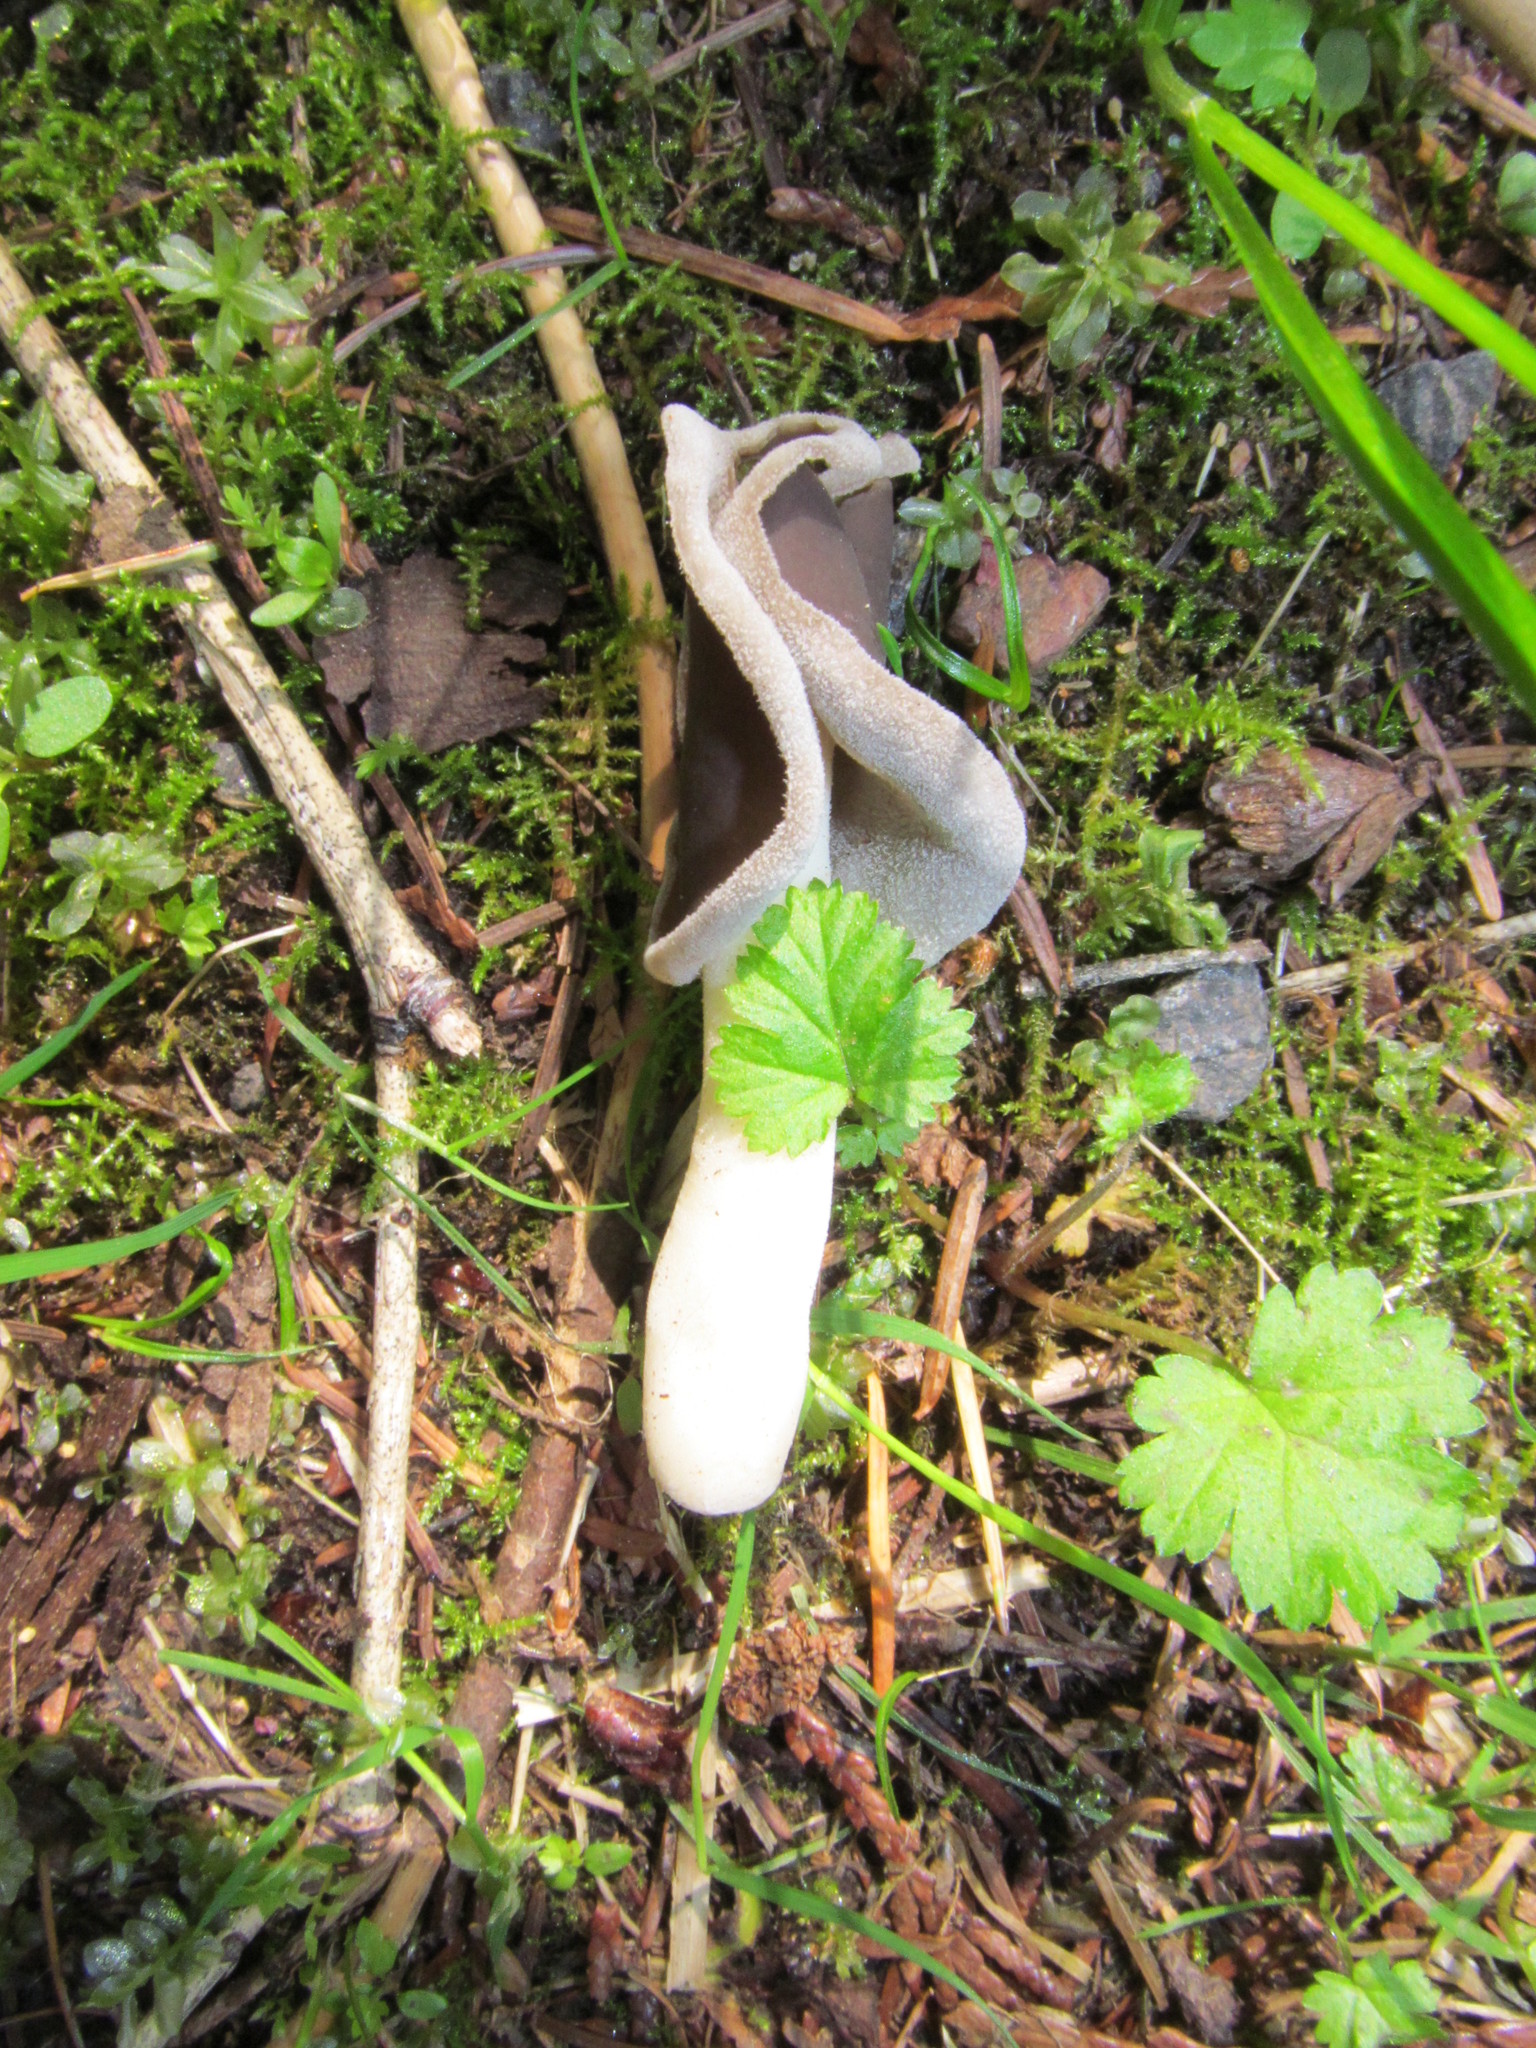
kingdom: Fungi
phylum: Ascomycota
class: Pezizomycetes
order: Pezizales
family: Helvellaceae
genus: Helvella
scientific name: Helvella compressa
